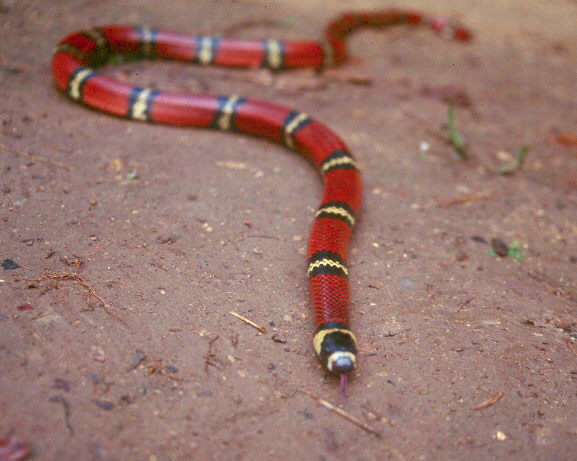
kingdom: Animalia
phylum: Chordata
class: Squamata
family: Colubridae
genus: Lampropeltis
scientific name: Lampropeltis abnorma
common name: Honduran milk snake
